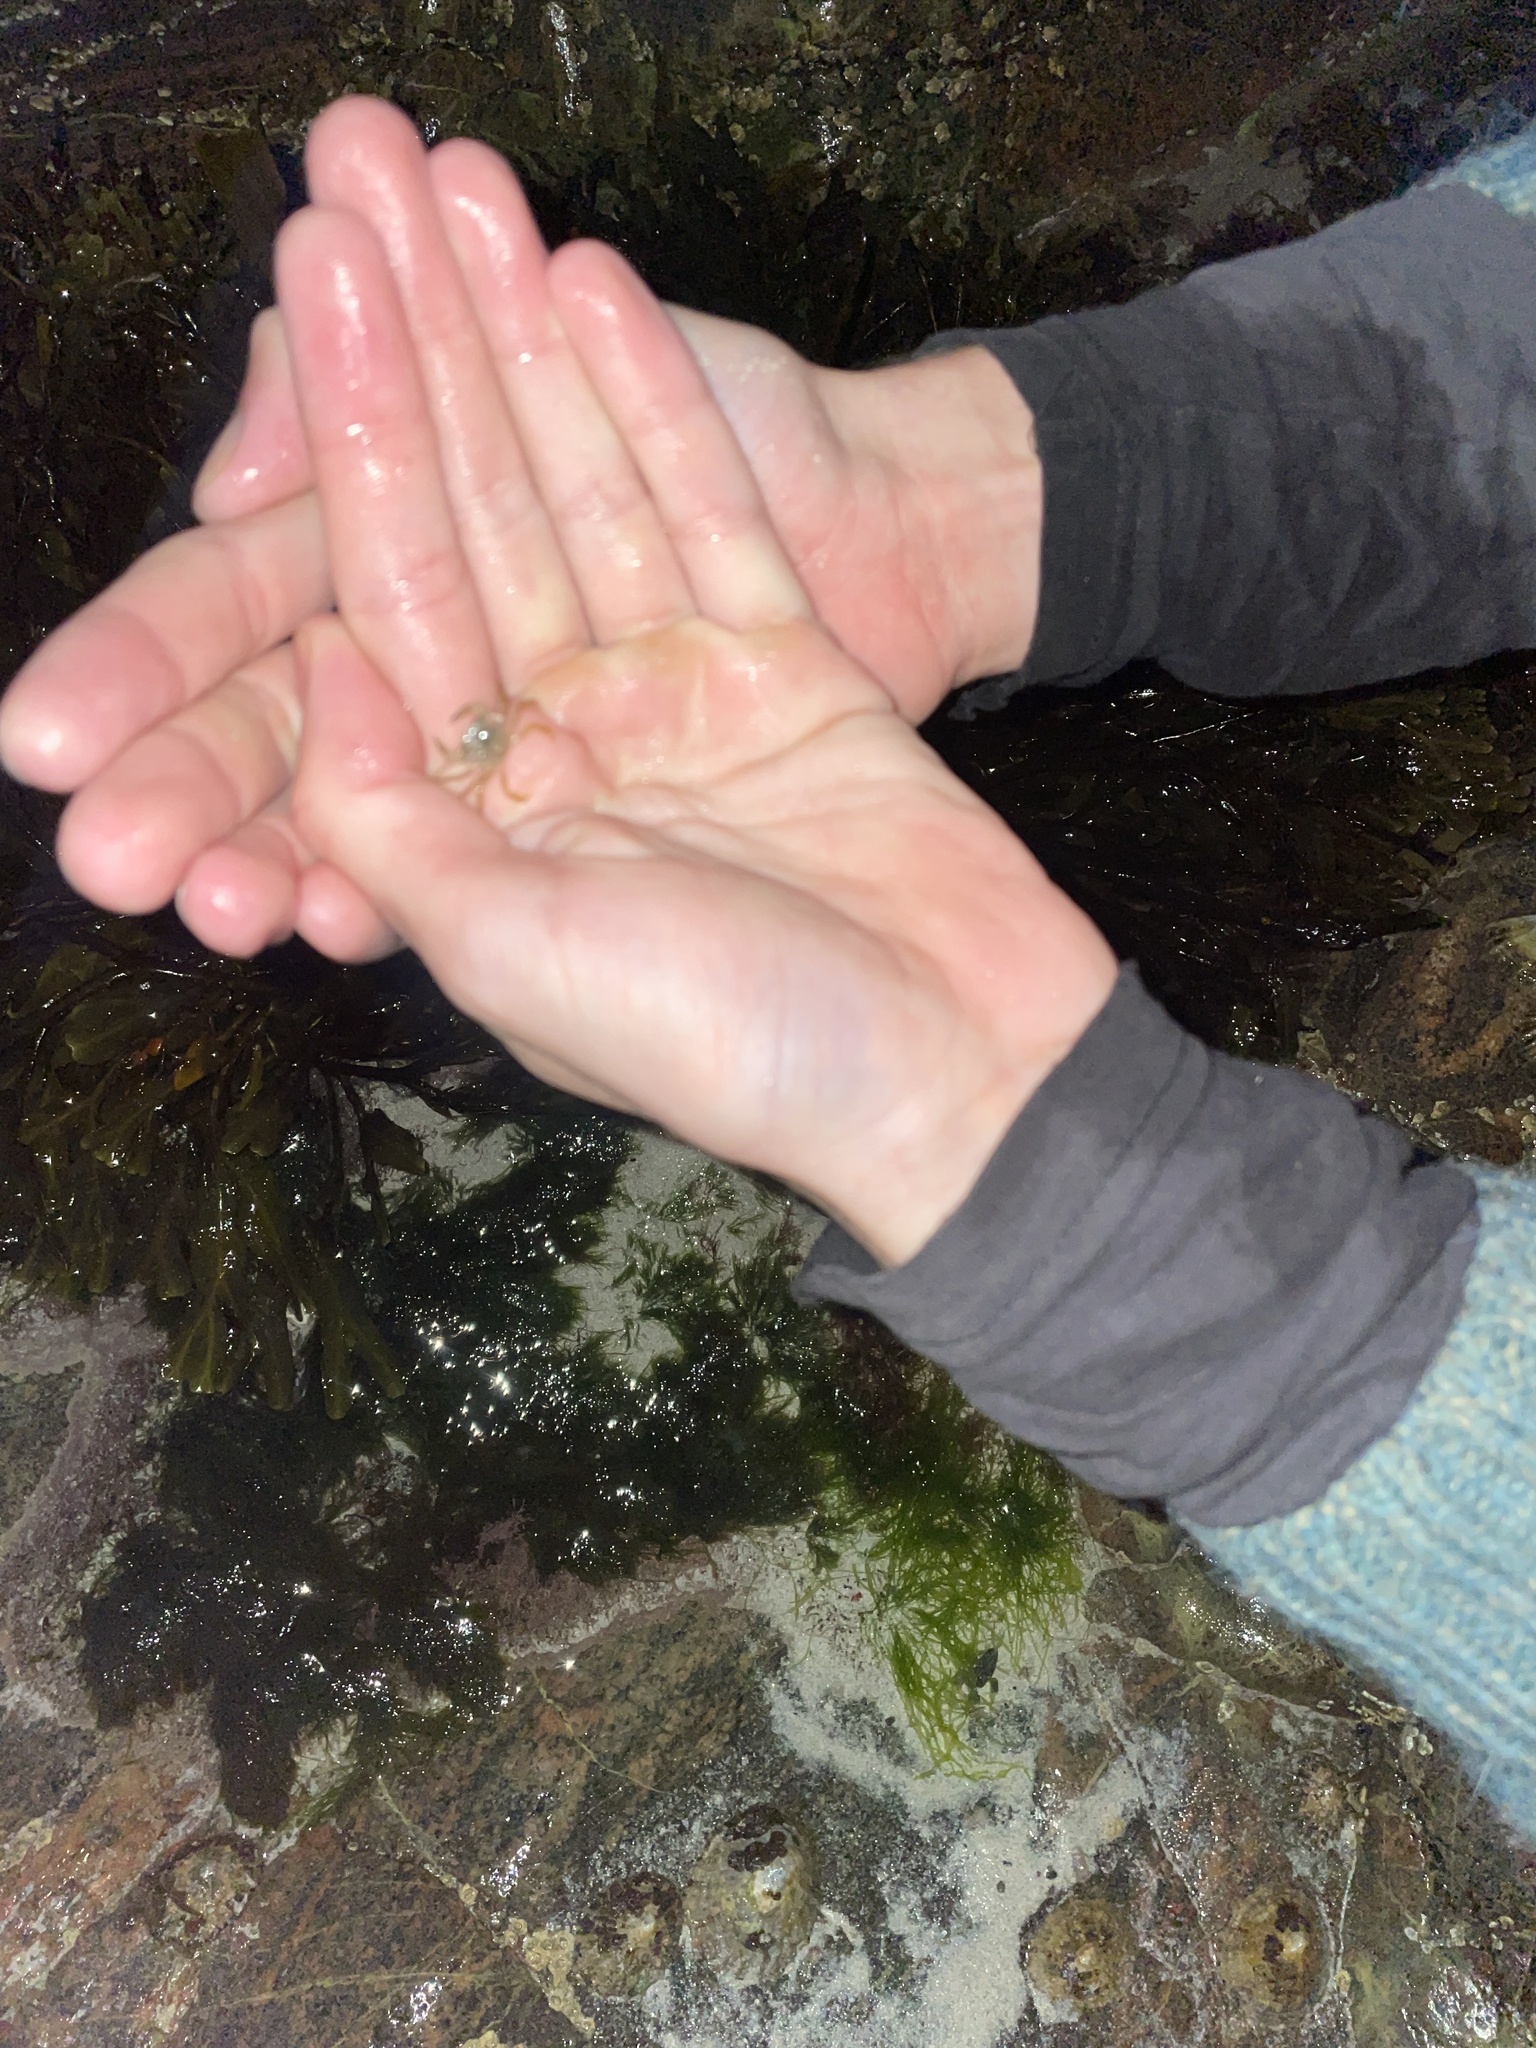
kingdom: Animalia
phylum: Arthropoda
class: Malacostraca
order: Decapoda
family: Carcinidae
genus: Carcinus
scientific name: Carcinus maenas
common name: European green crab
